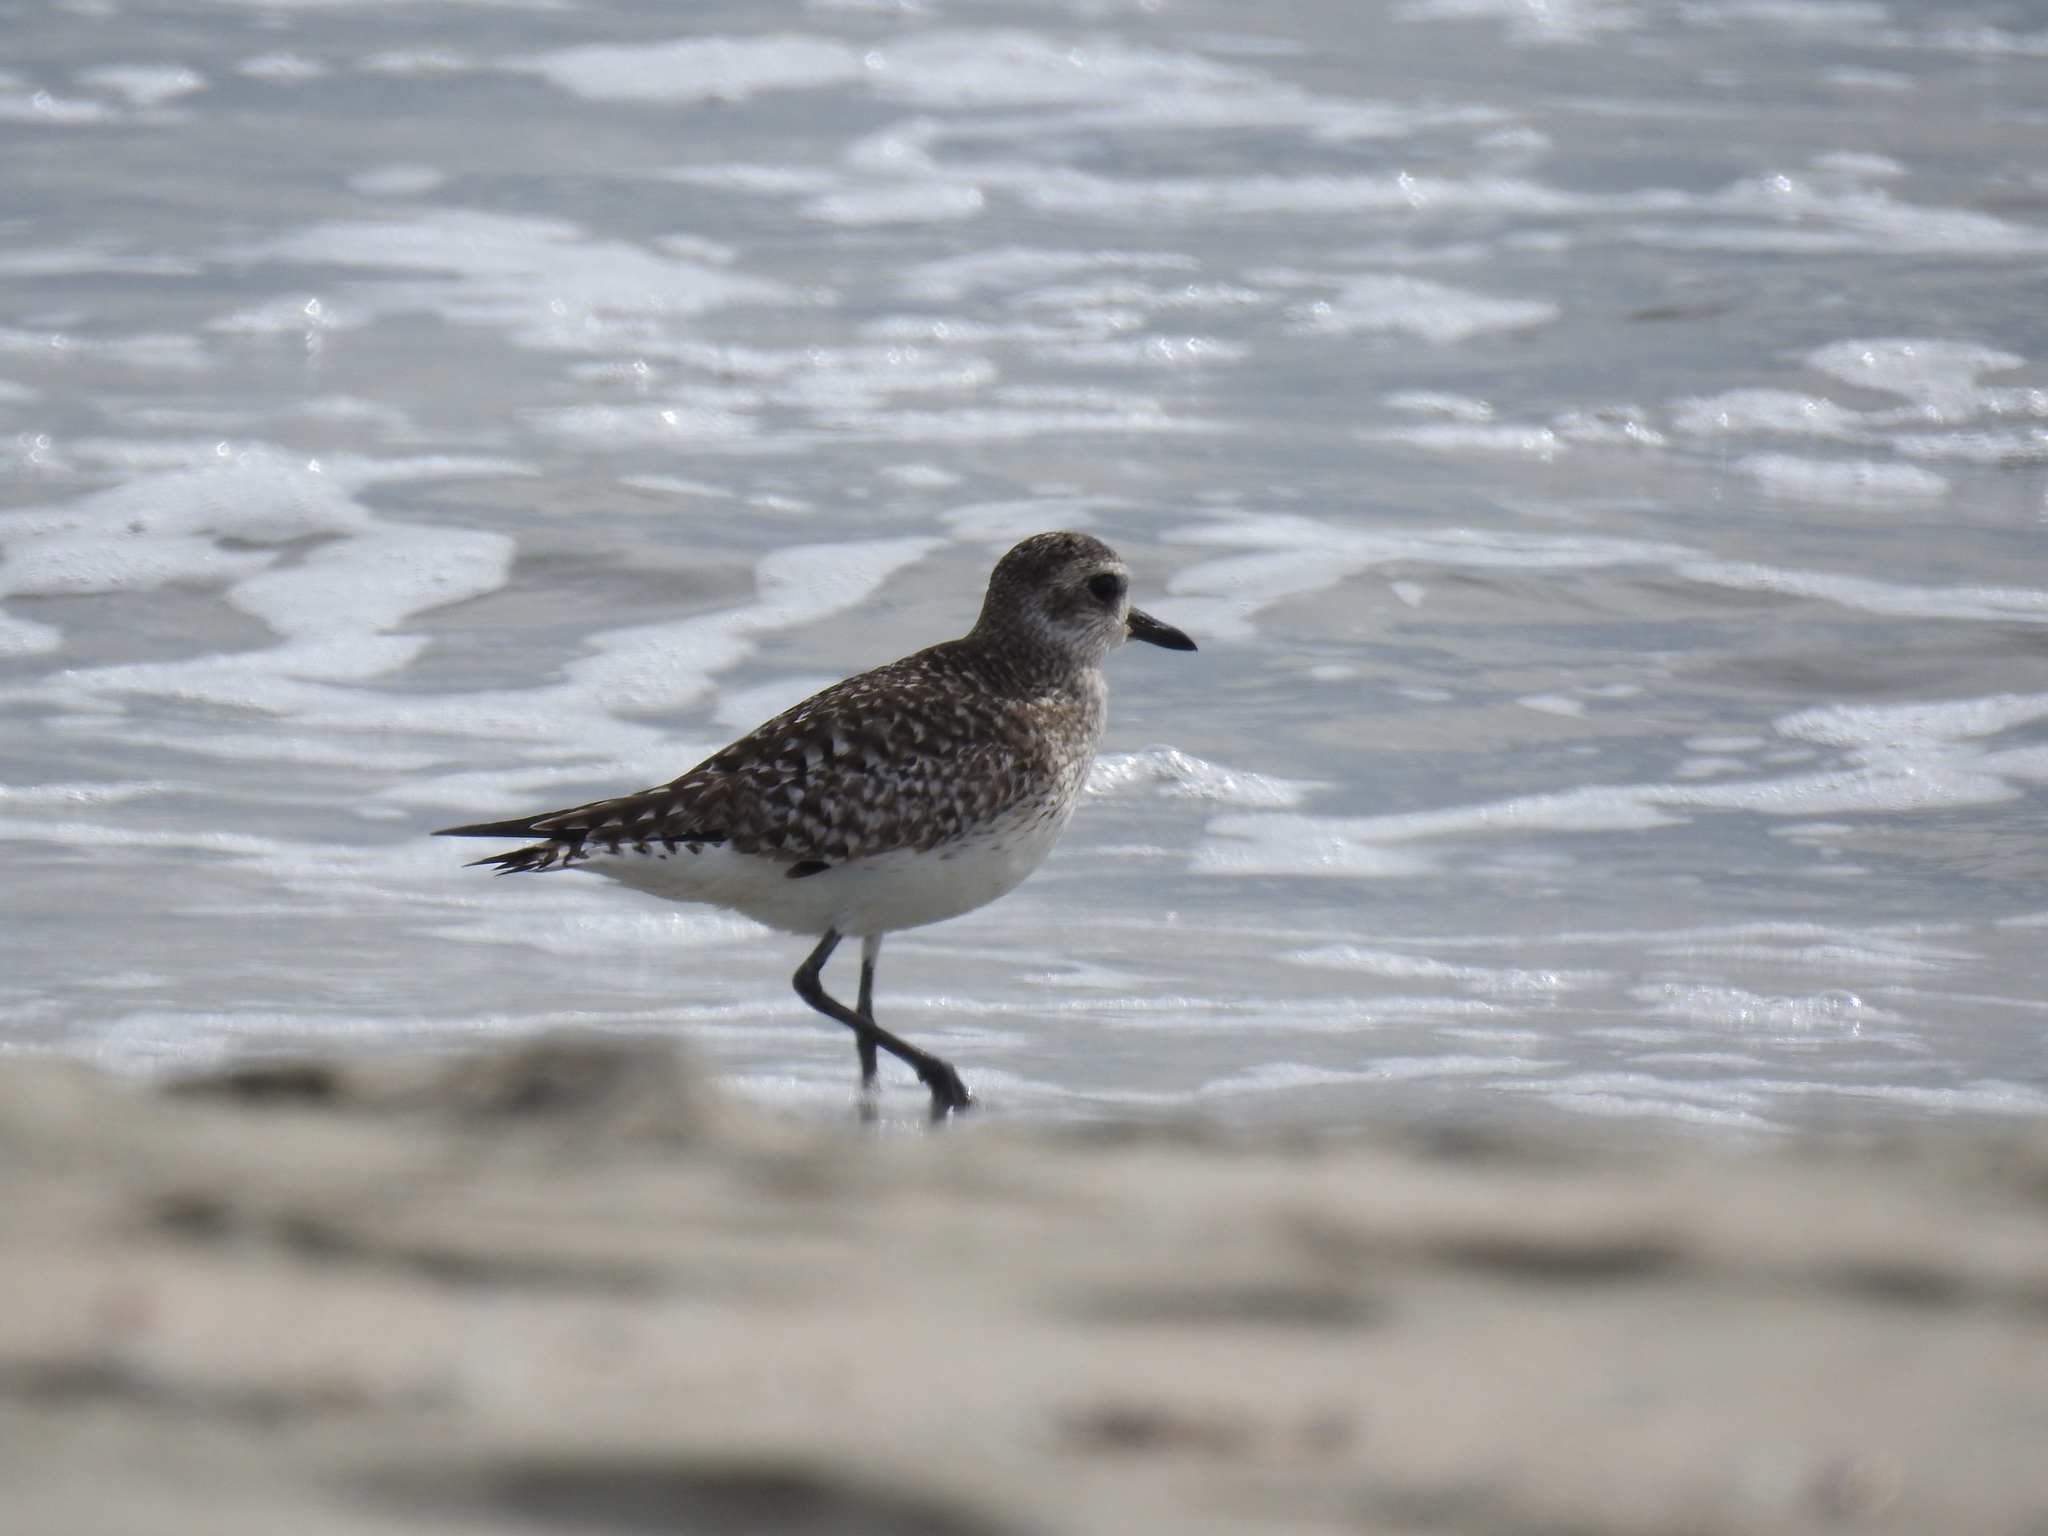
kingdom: Animalia
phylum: Chordata
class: Aves
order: Charadriiformes
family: Charadriidae
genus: Pluvialis
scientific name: Pluvialis squatarola
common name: Grey plover
